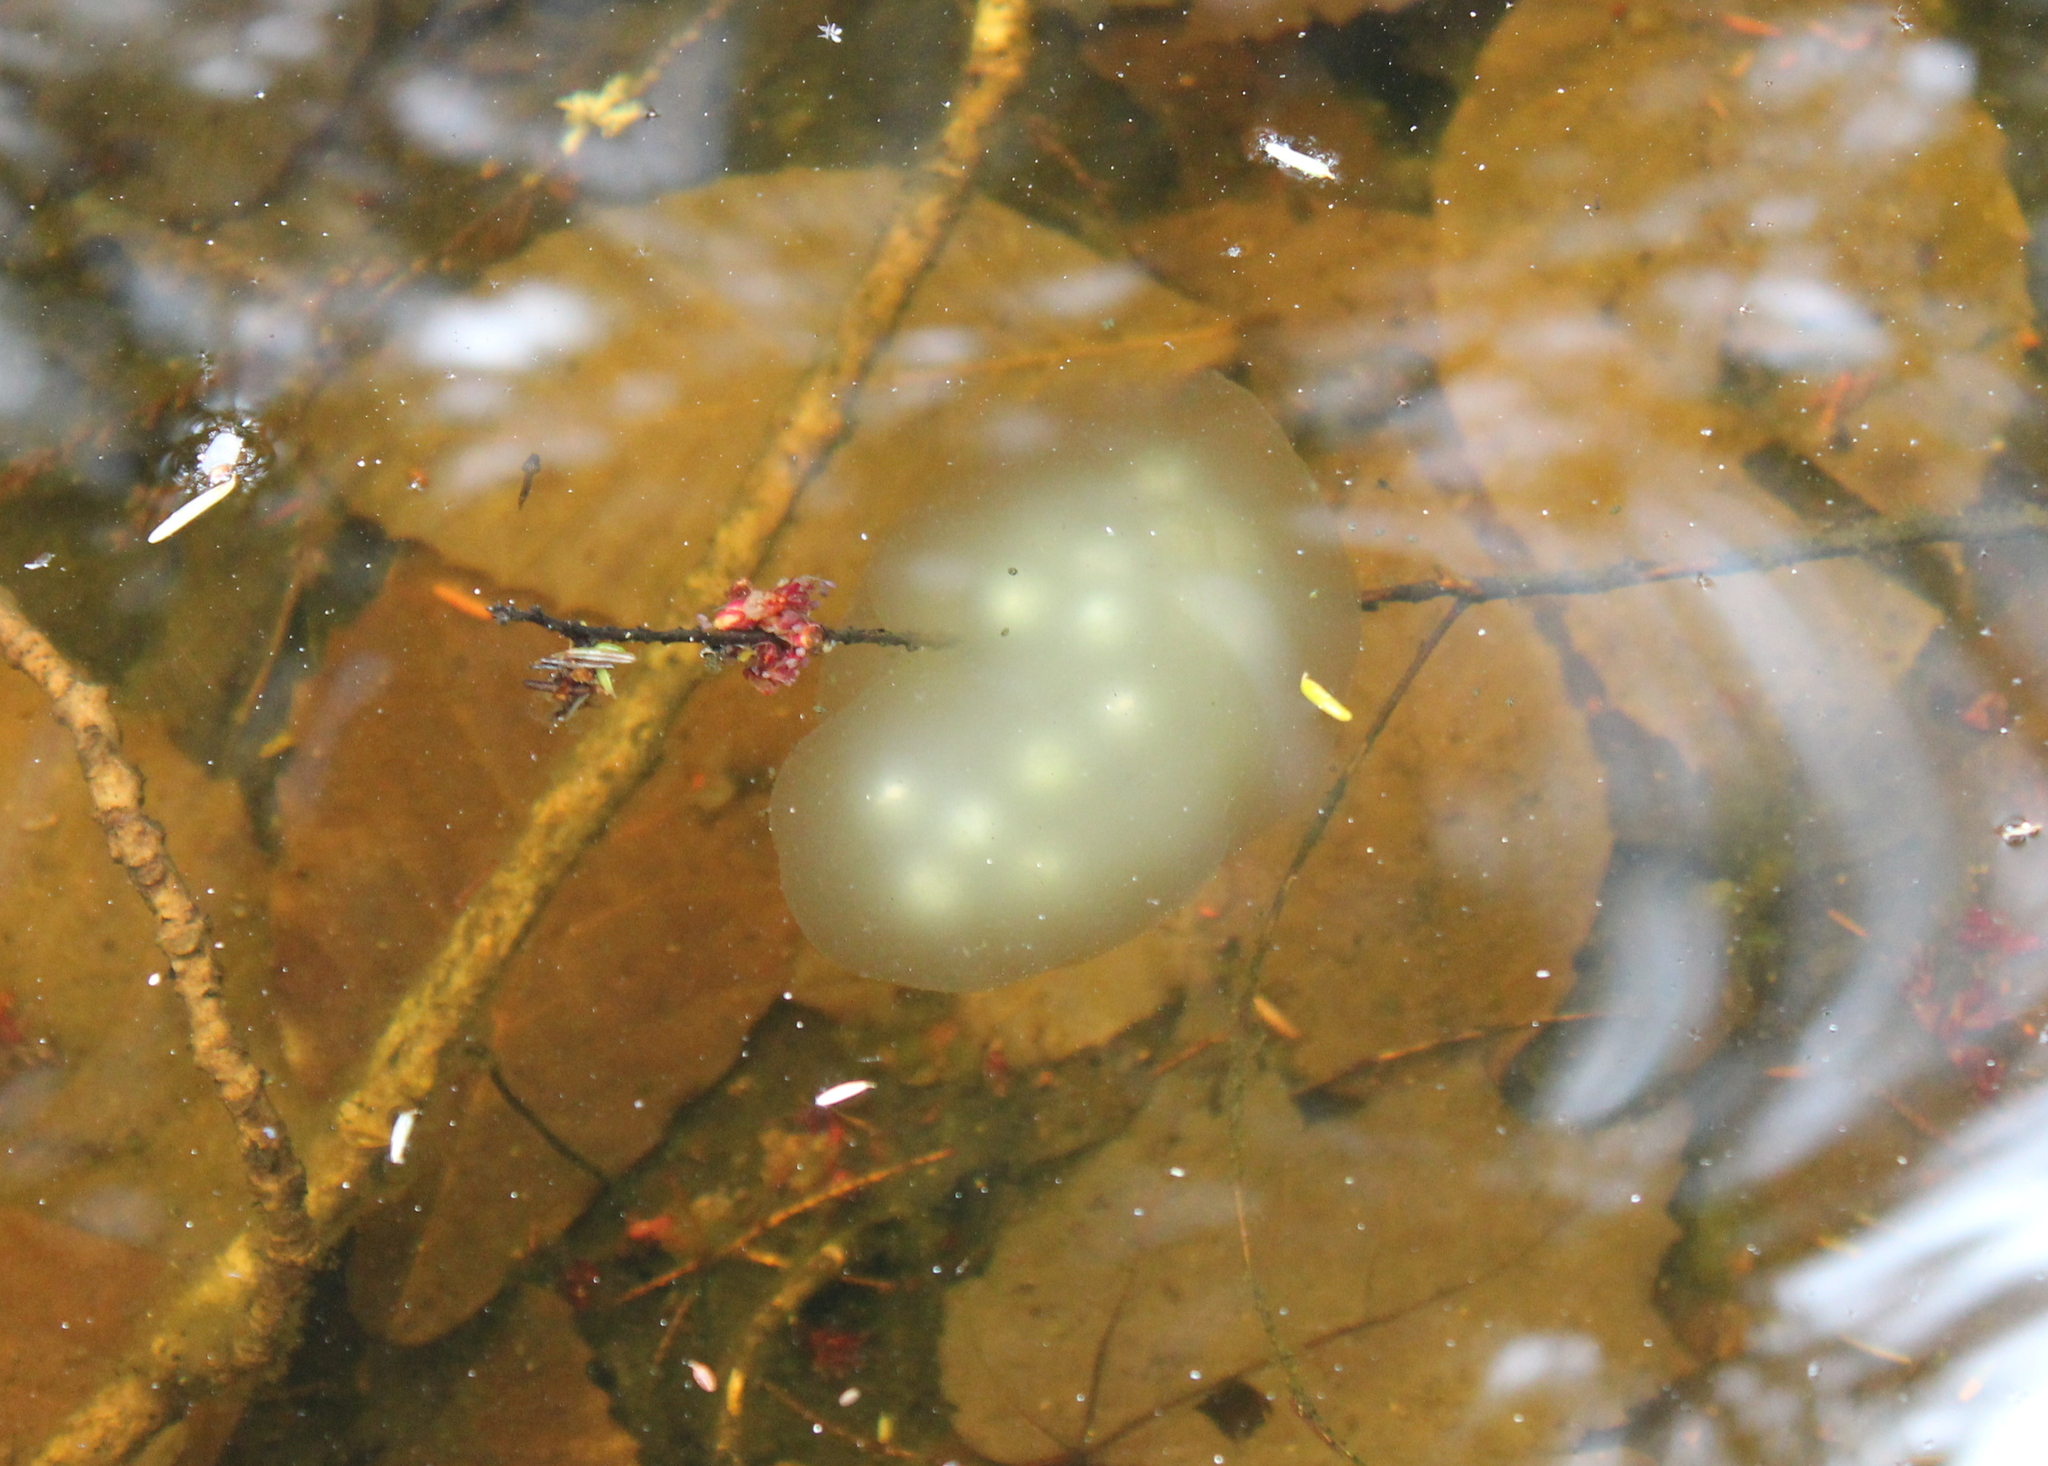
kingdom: Animalia
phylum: Chordata
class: Amphibia
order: Caudata
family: Ambystomatidae
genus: Ambystoma
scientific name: Ambystoma maculatum
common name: Spotted salamander
